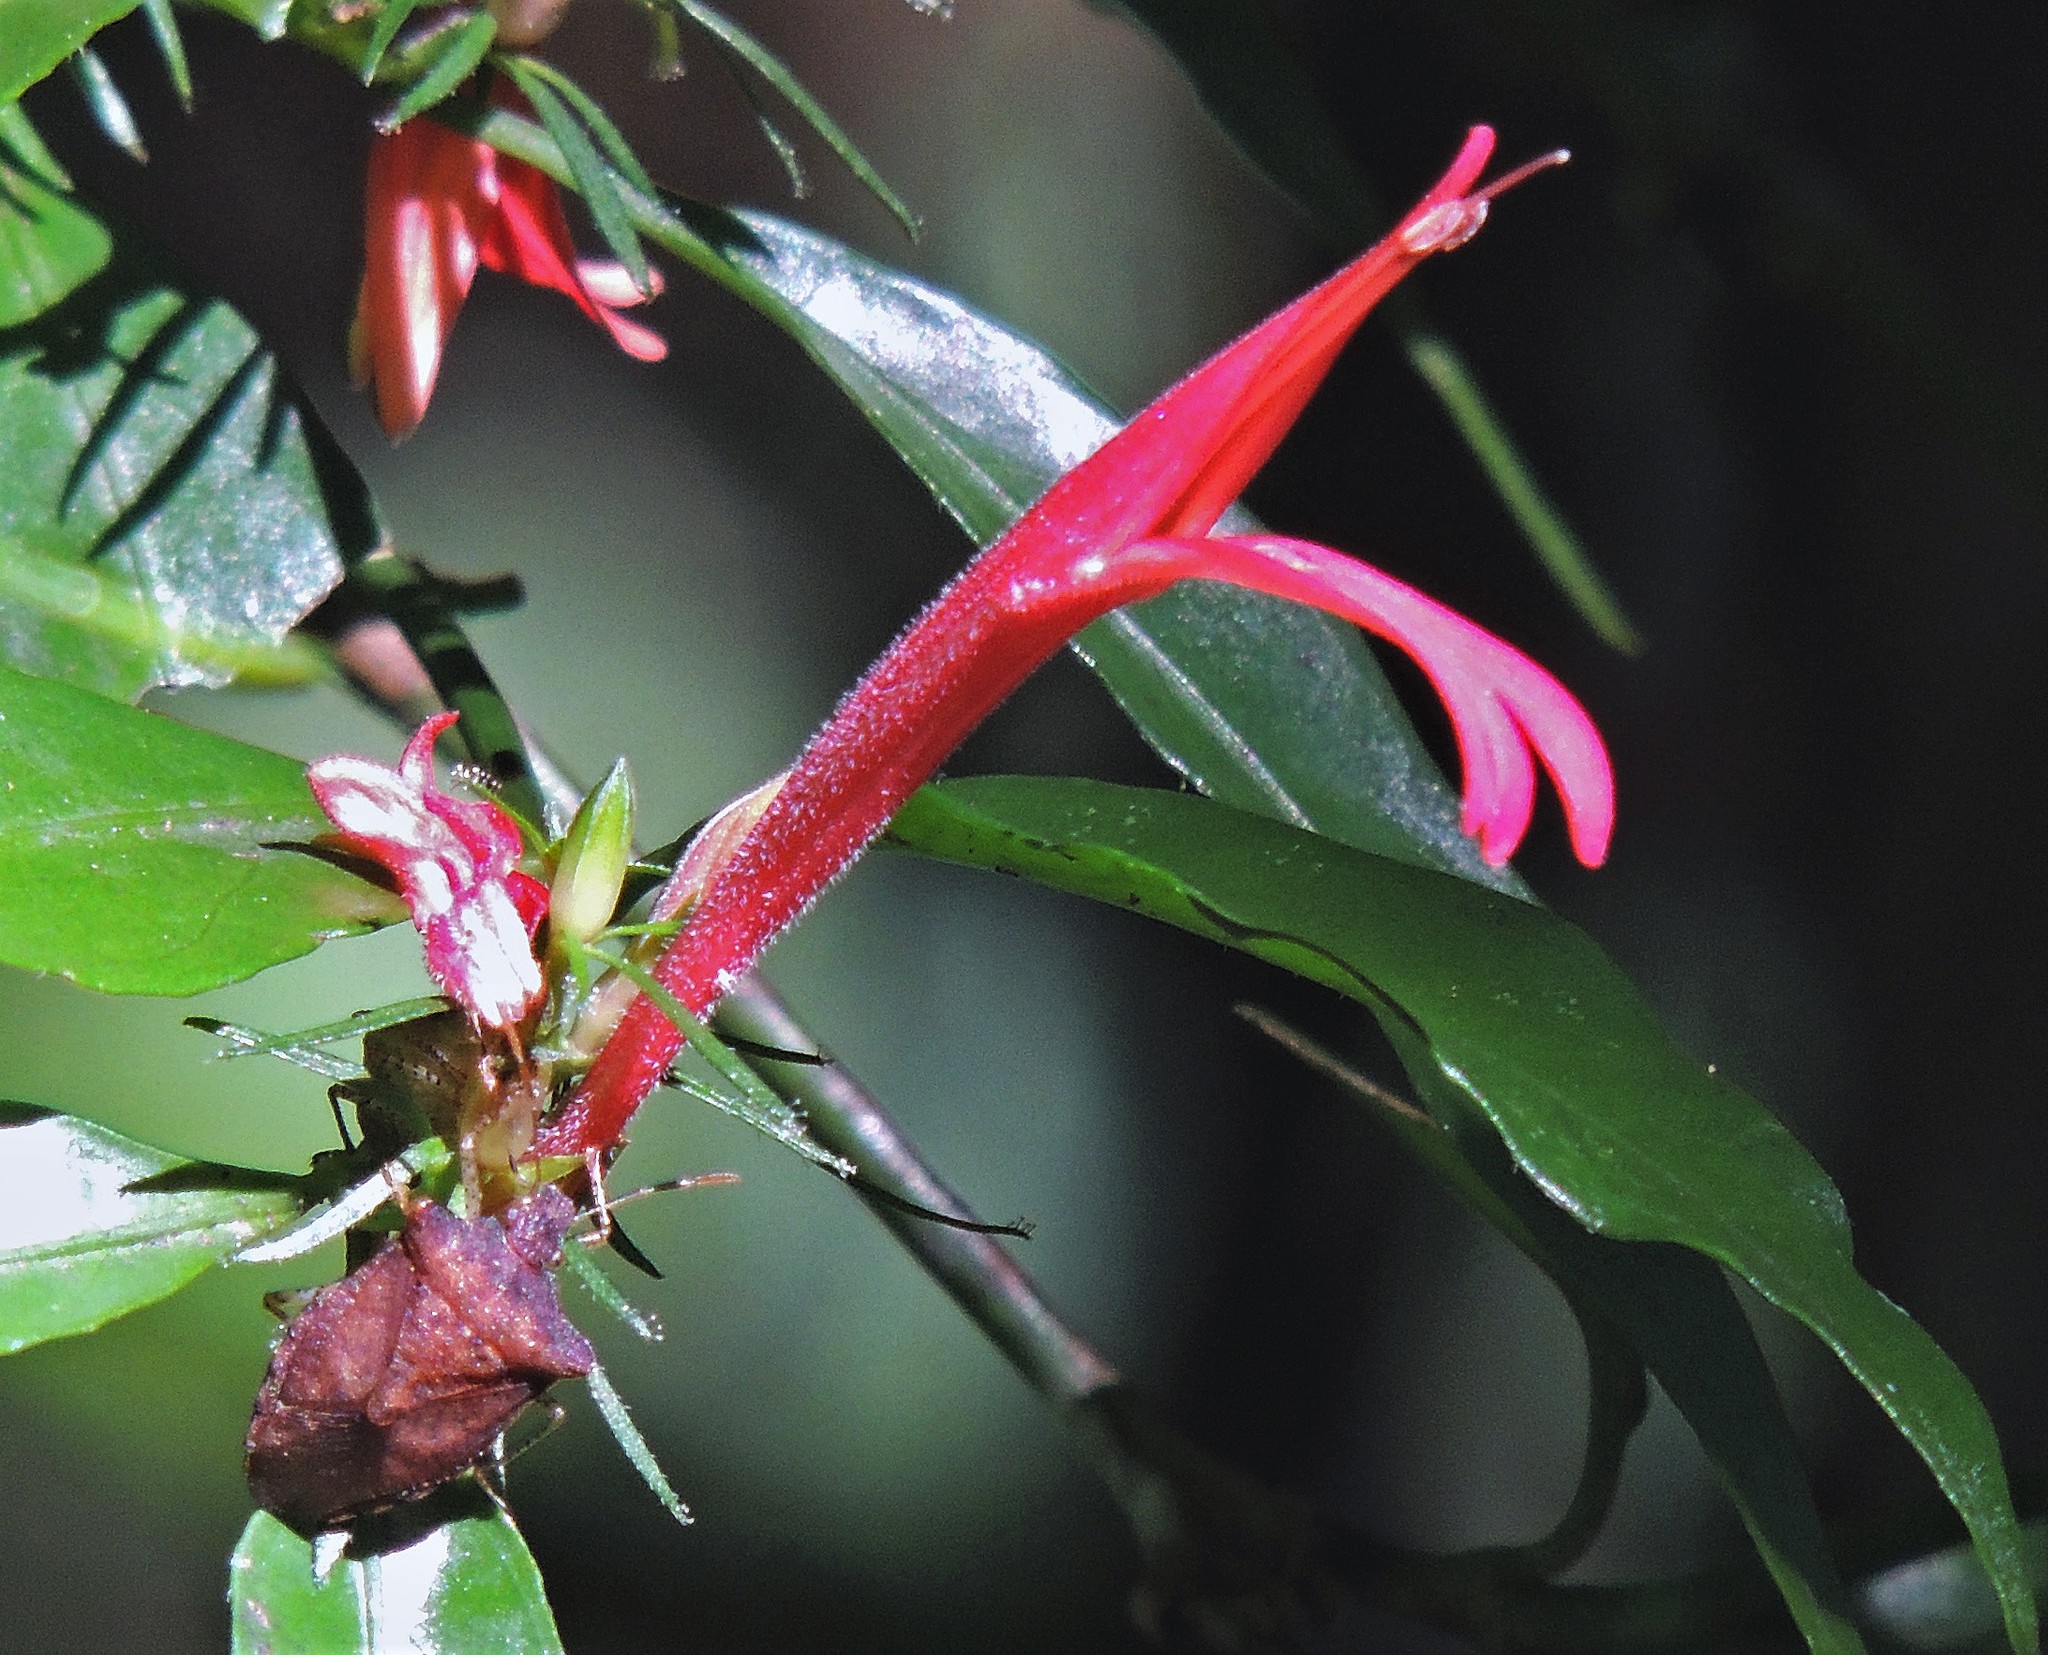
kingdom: Plantae
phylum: Tracheophyta
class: Magnoliopsida
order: Lamiales
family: Acanthaceae
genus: Justicia
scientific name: Justicia brasiliana
